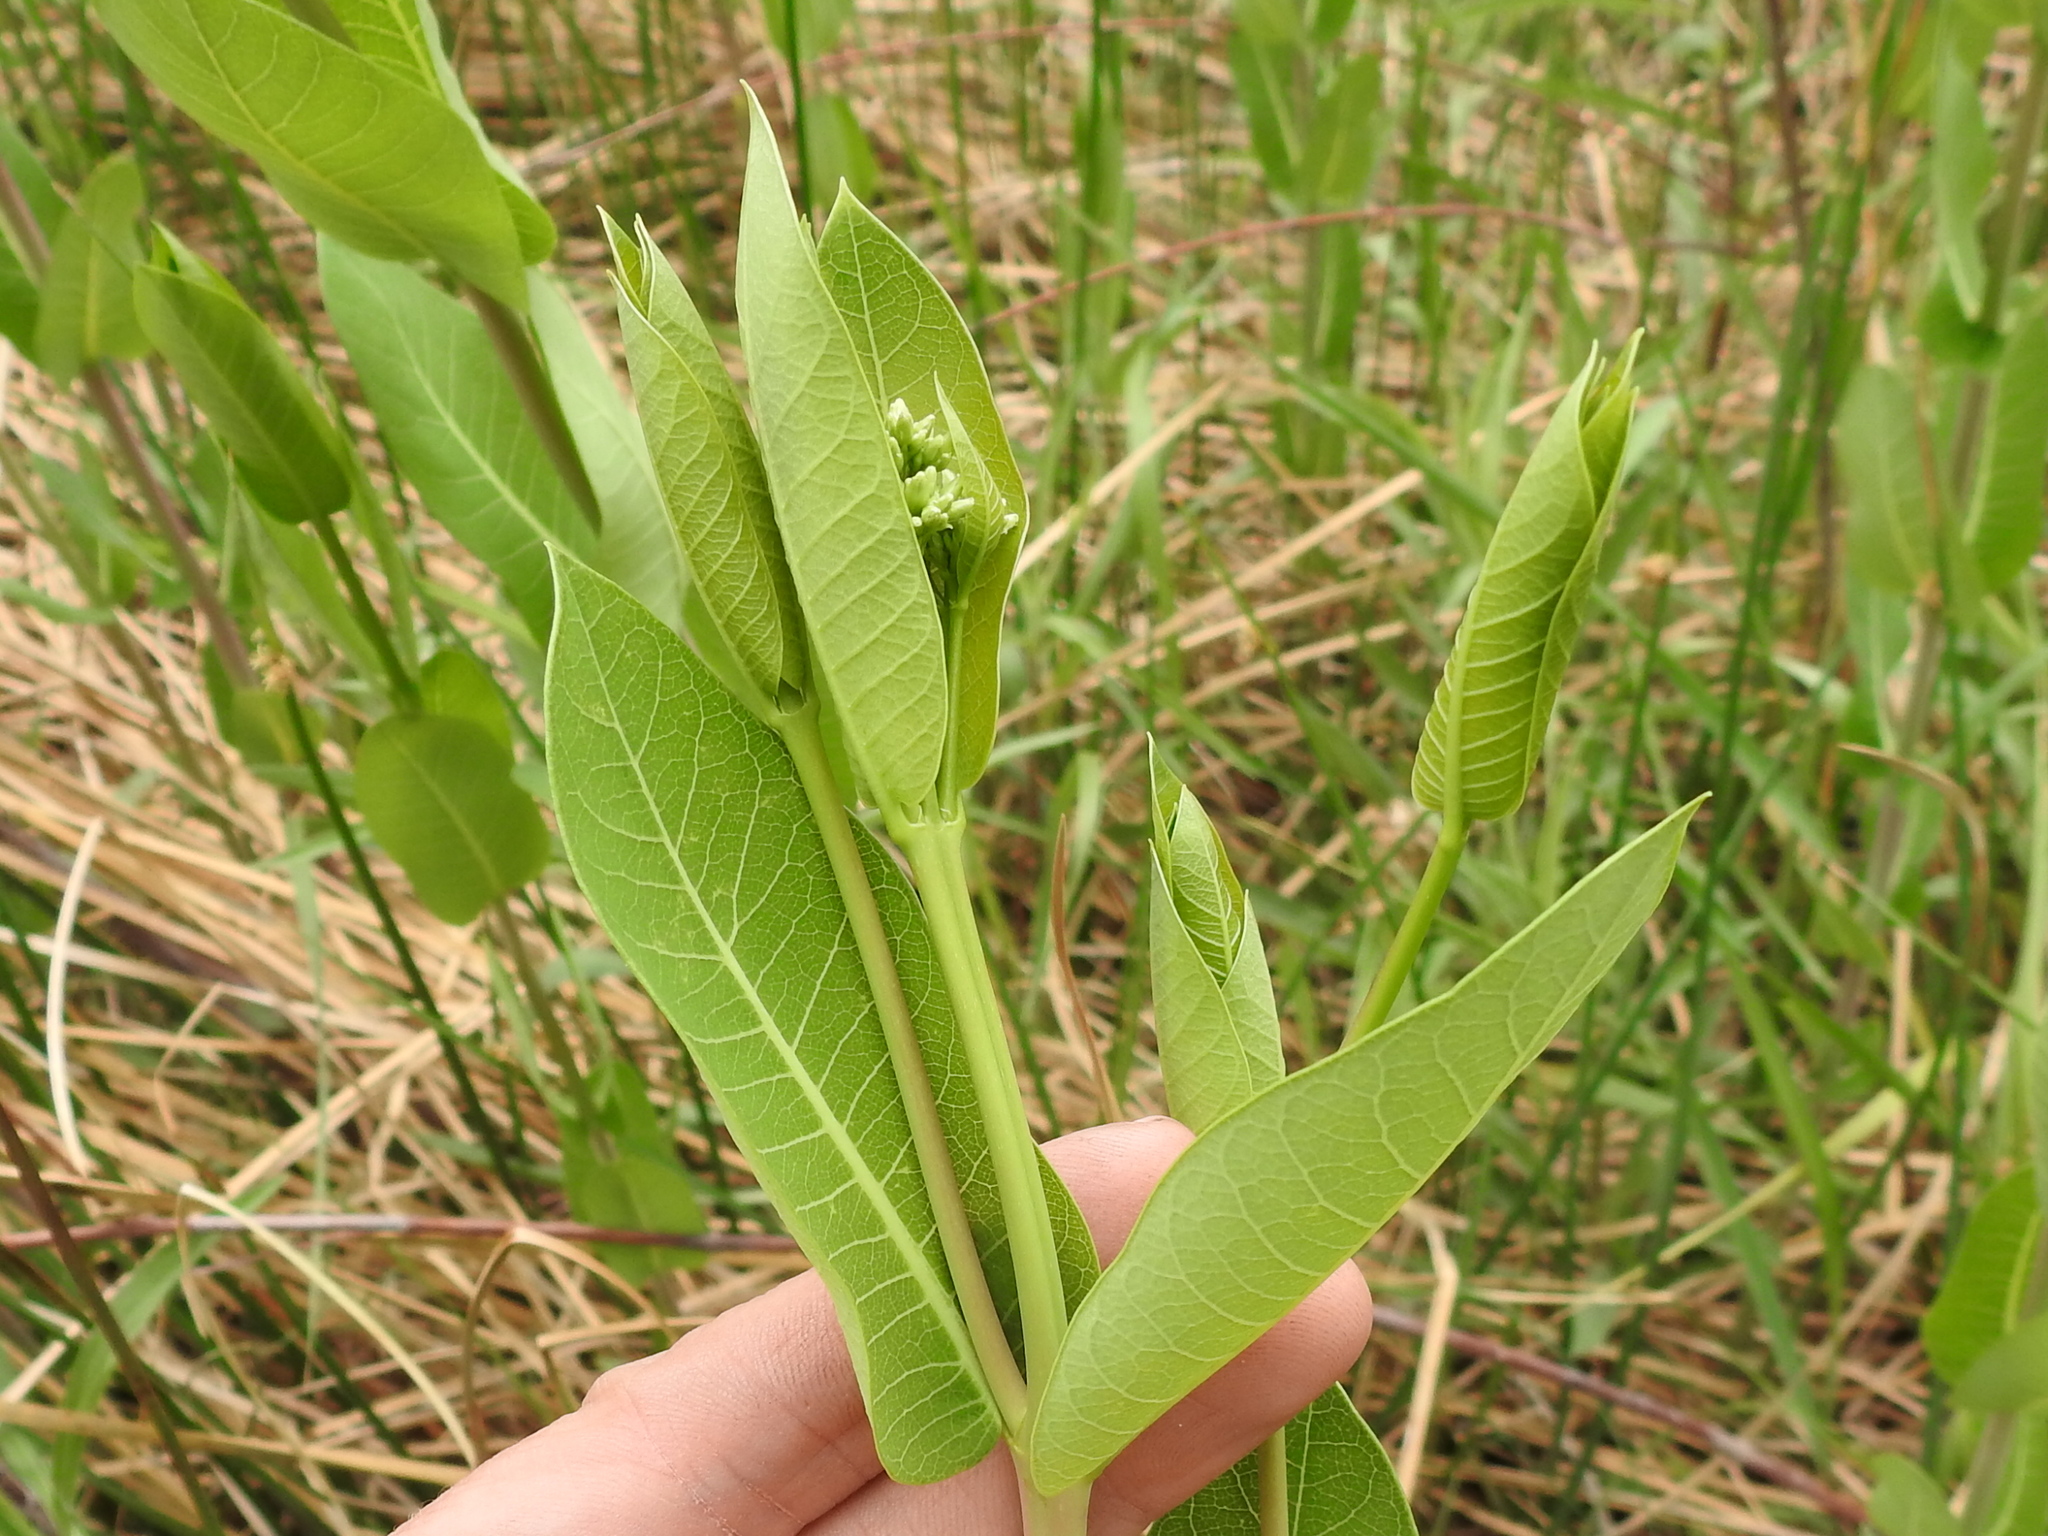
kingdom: Plantae
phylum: Tracheophyta
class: Magnoliopsida
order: Gentianales
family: Apocynaceae
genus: Apocynum
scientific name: Apocynum cannabinum
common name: Hemp dogbane
